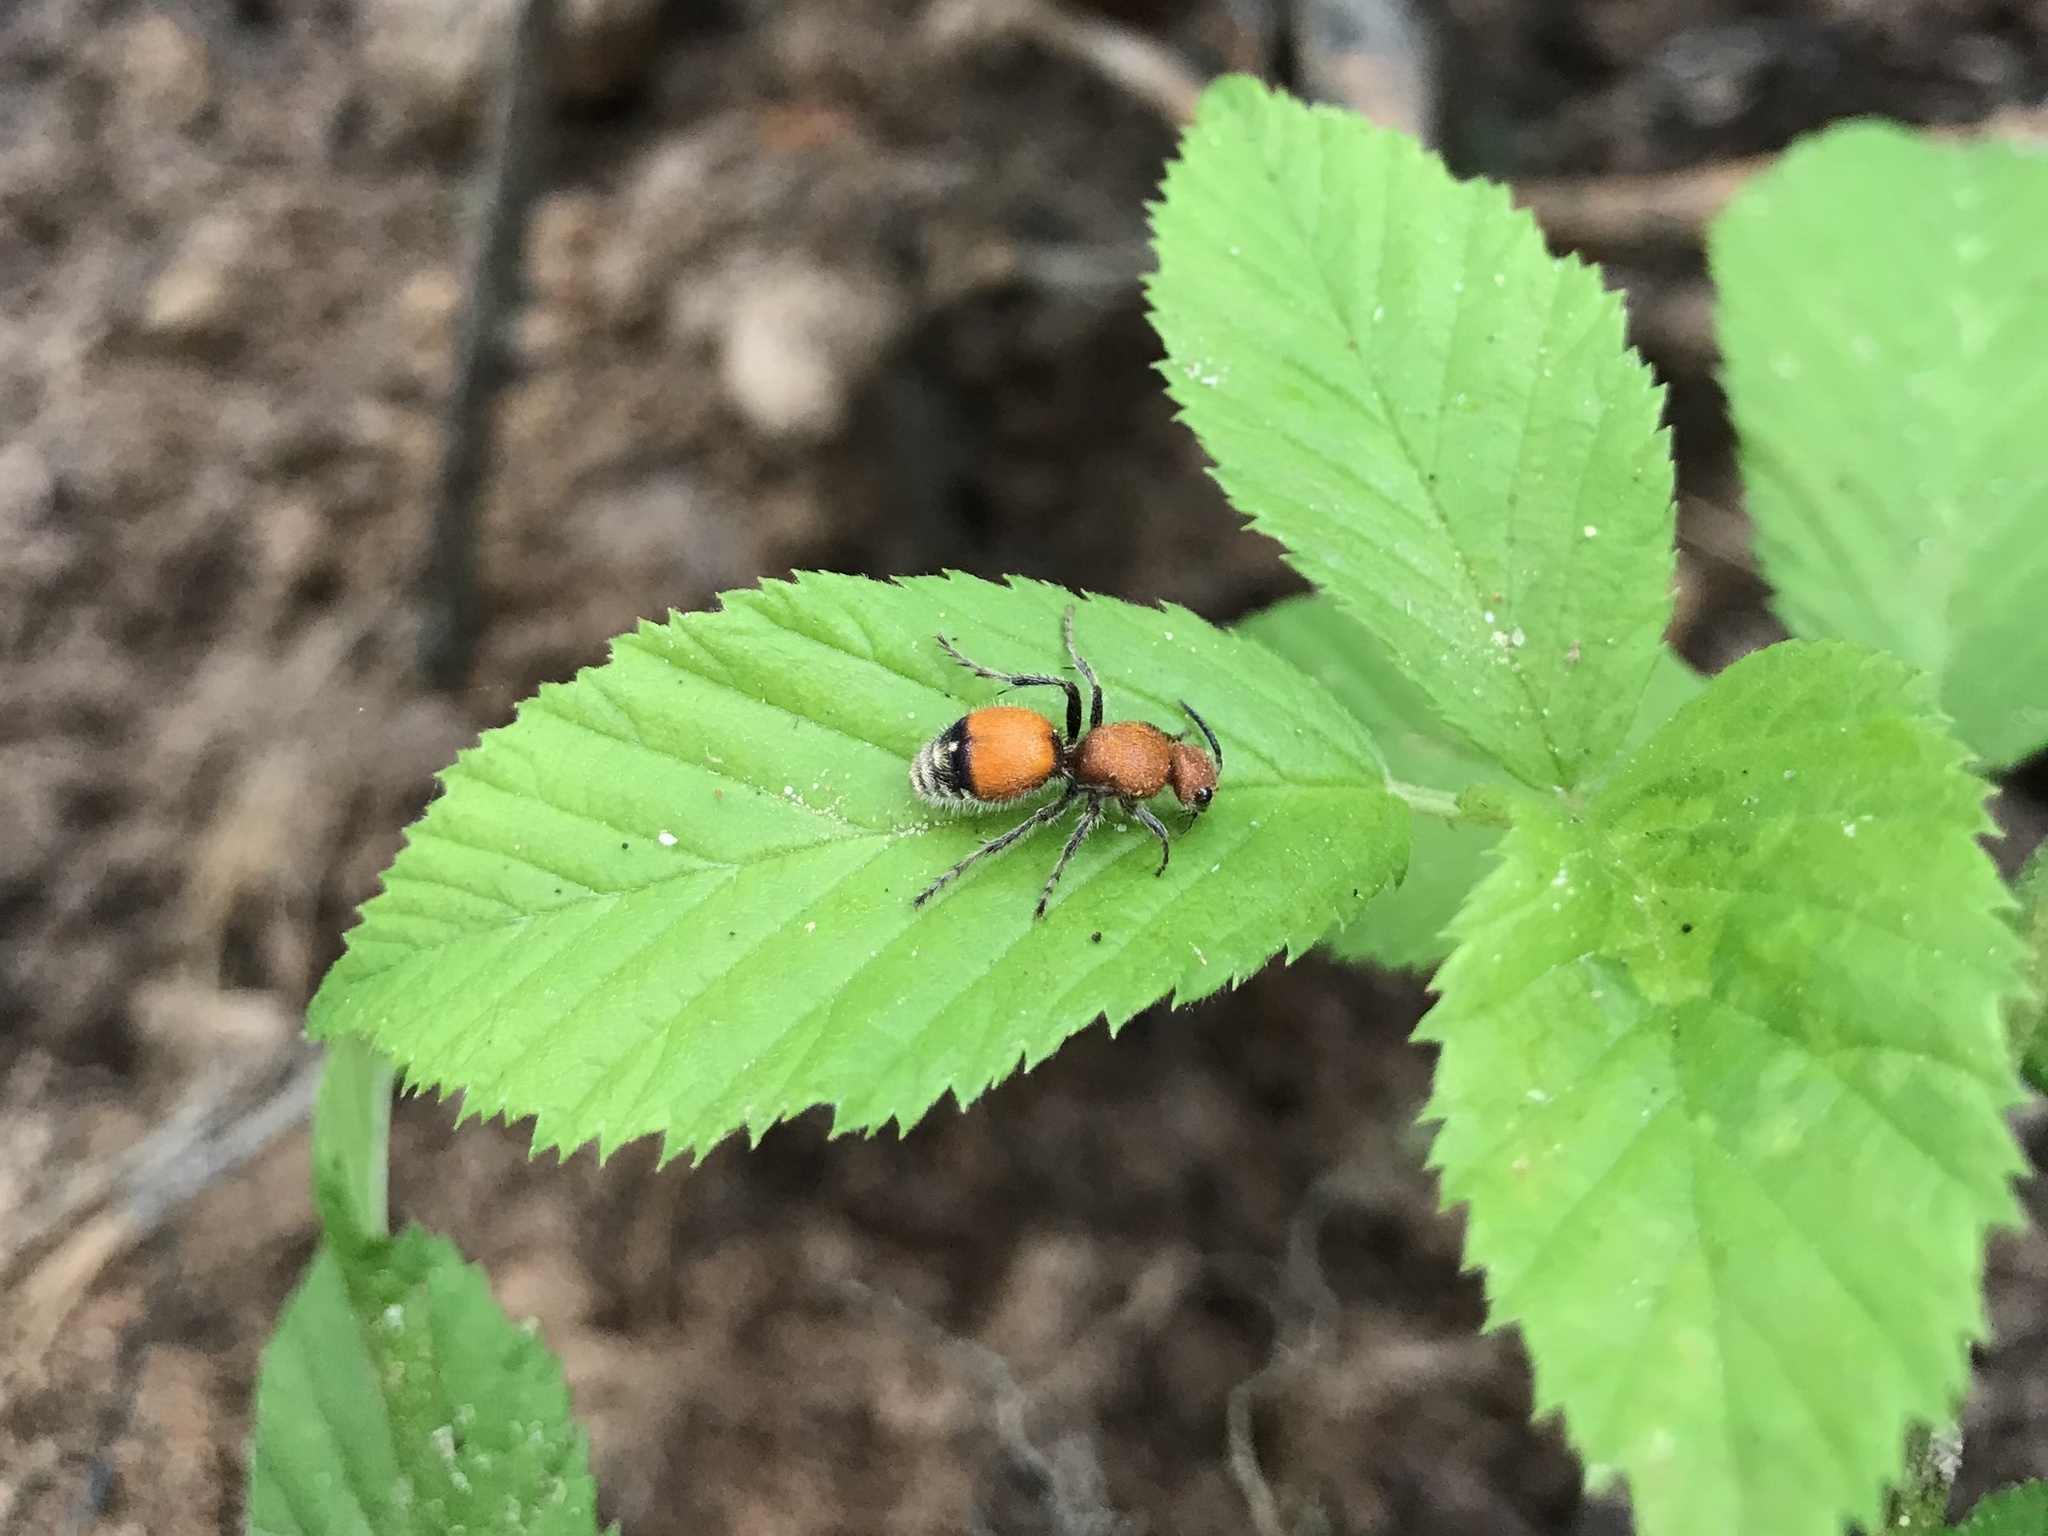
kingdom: Animalia
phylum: Arthropoda
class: Insecta
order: Hymenoptera
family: Mutillidae
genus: Dasymutilla
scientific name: Dasymutilla
